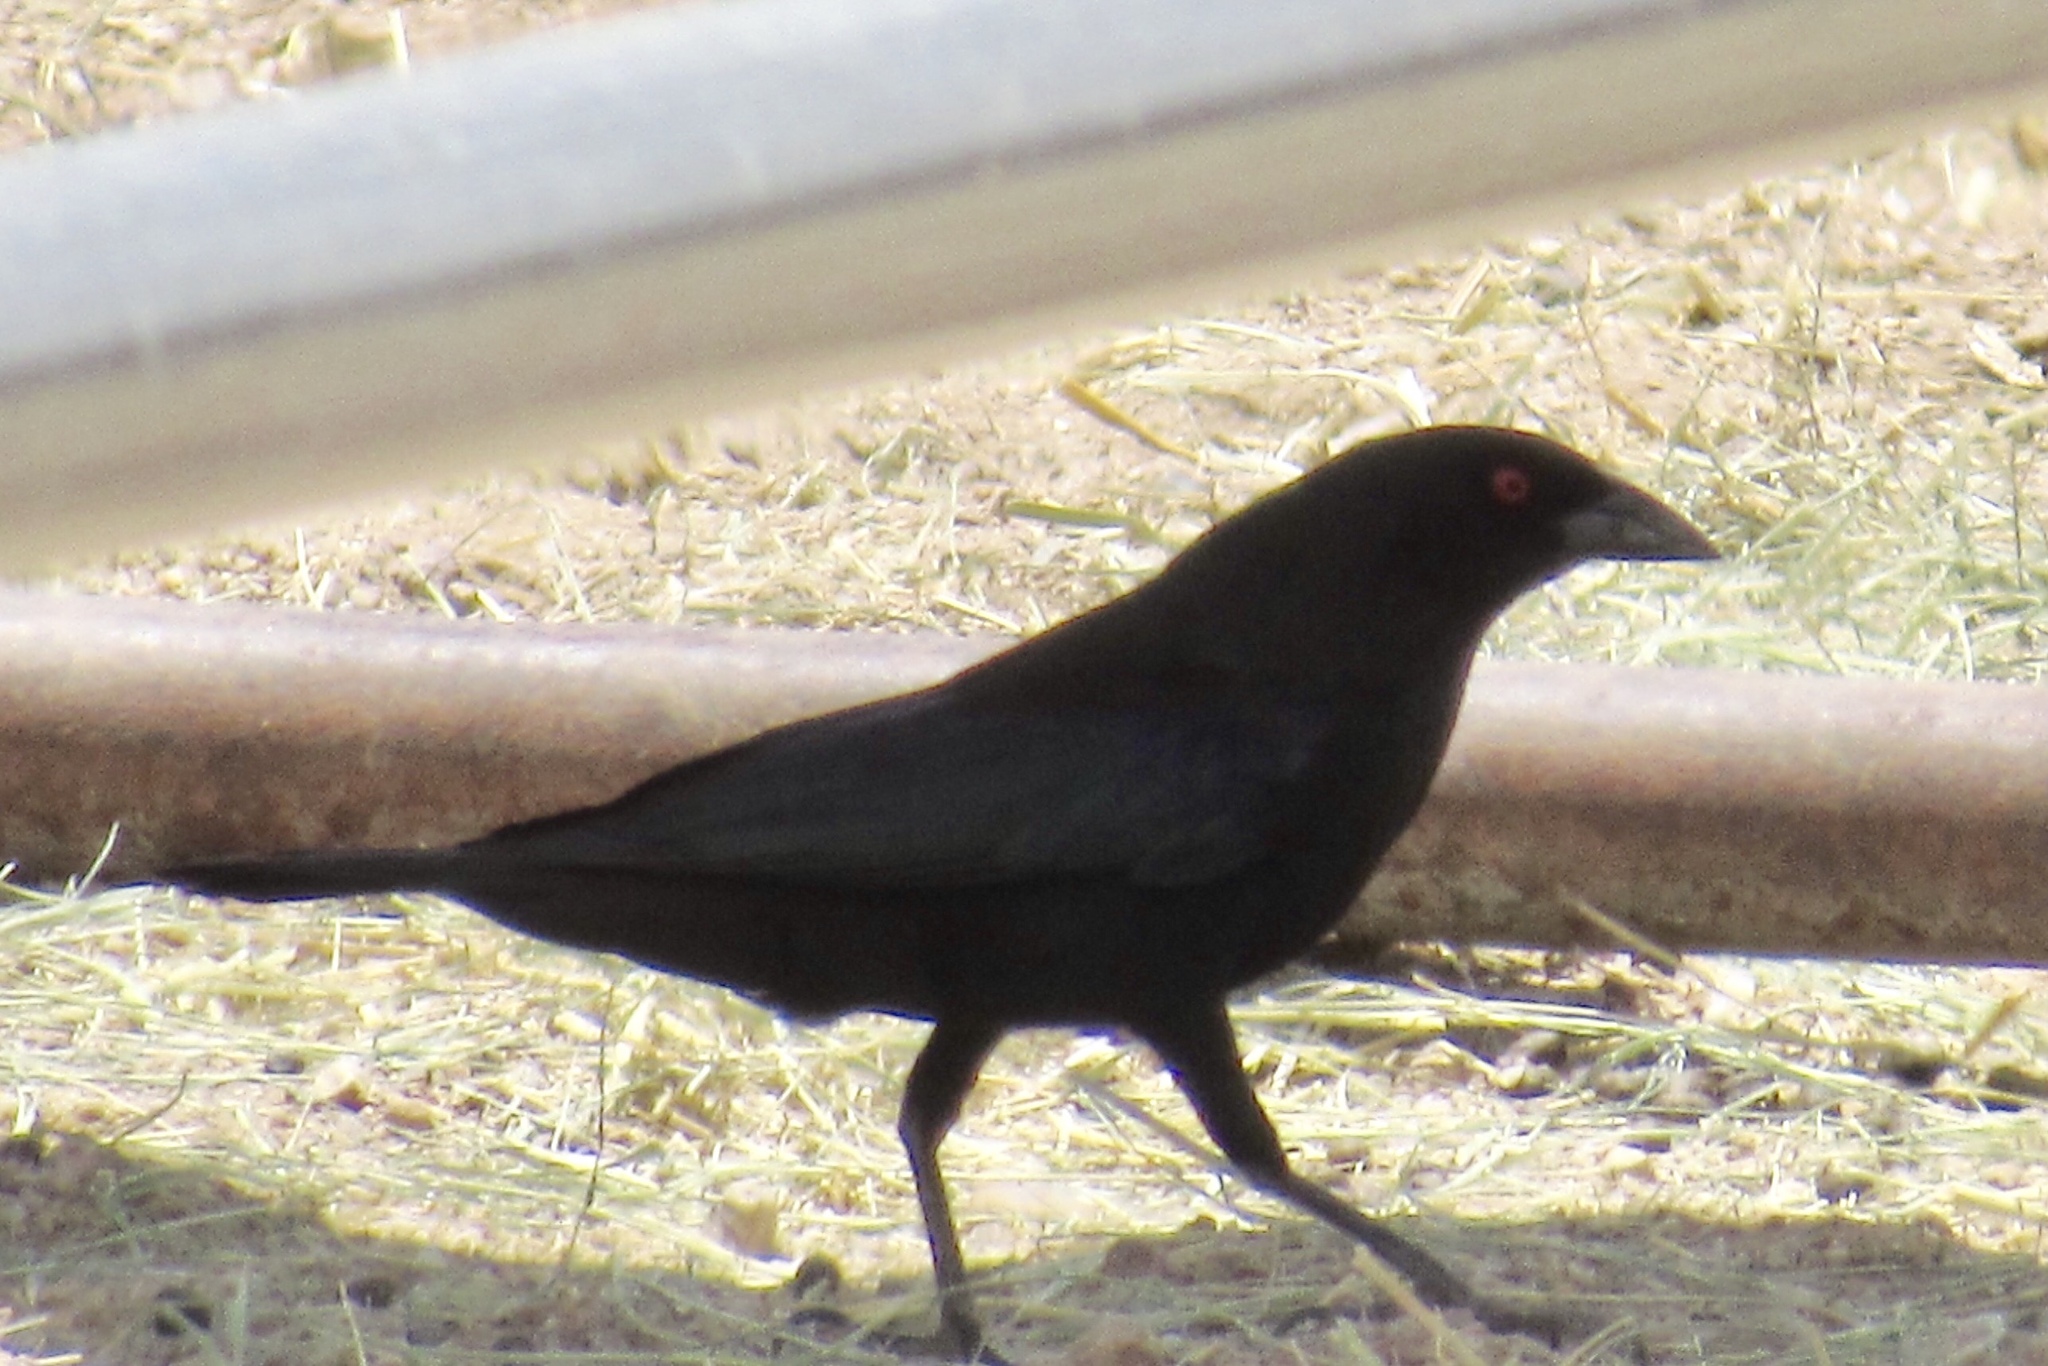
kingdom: Animalia
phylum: Chordata
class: Aves
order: Passeriformes
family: Icteridae
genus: Molothrus
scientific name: Molothrus aeneus
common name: Bronzed cowbird
